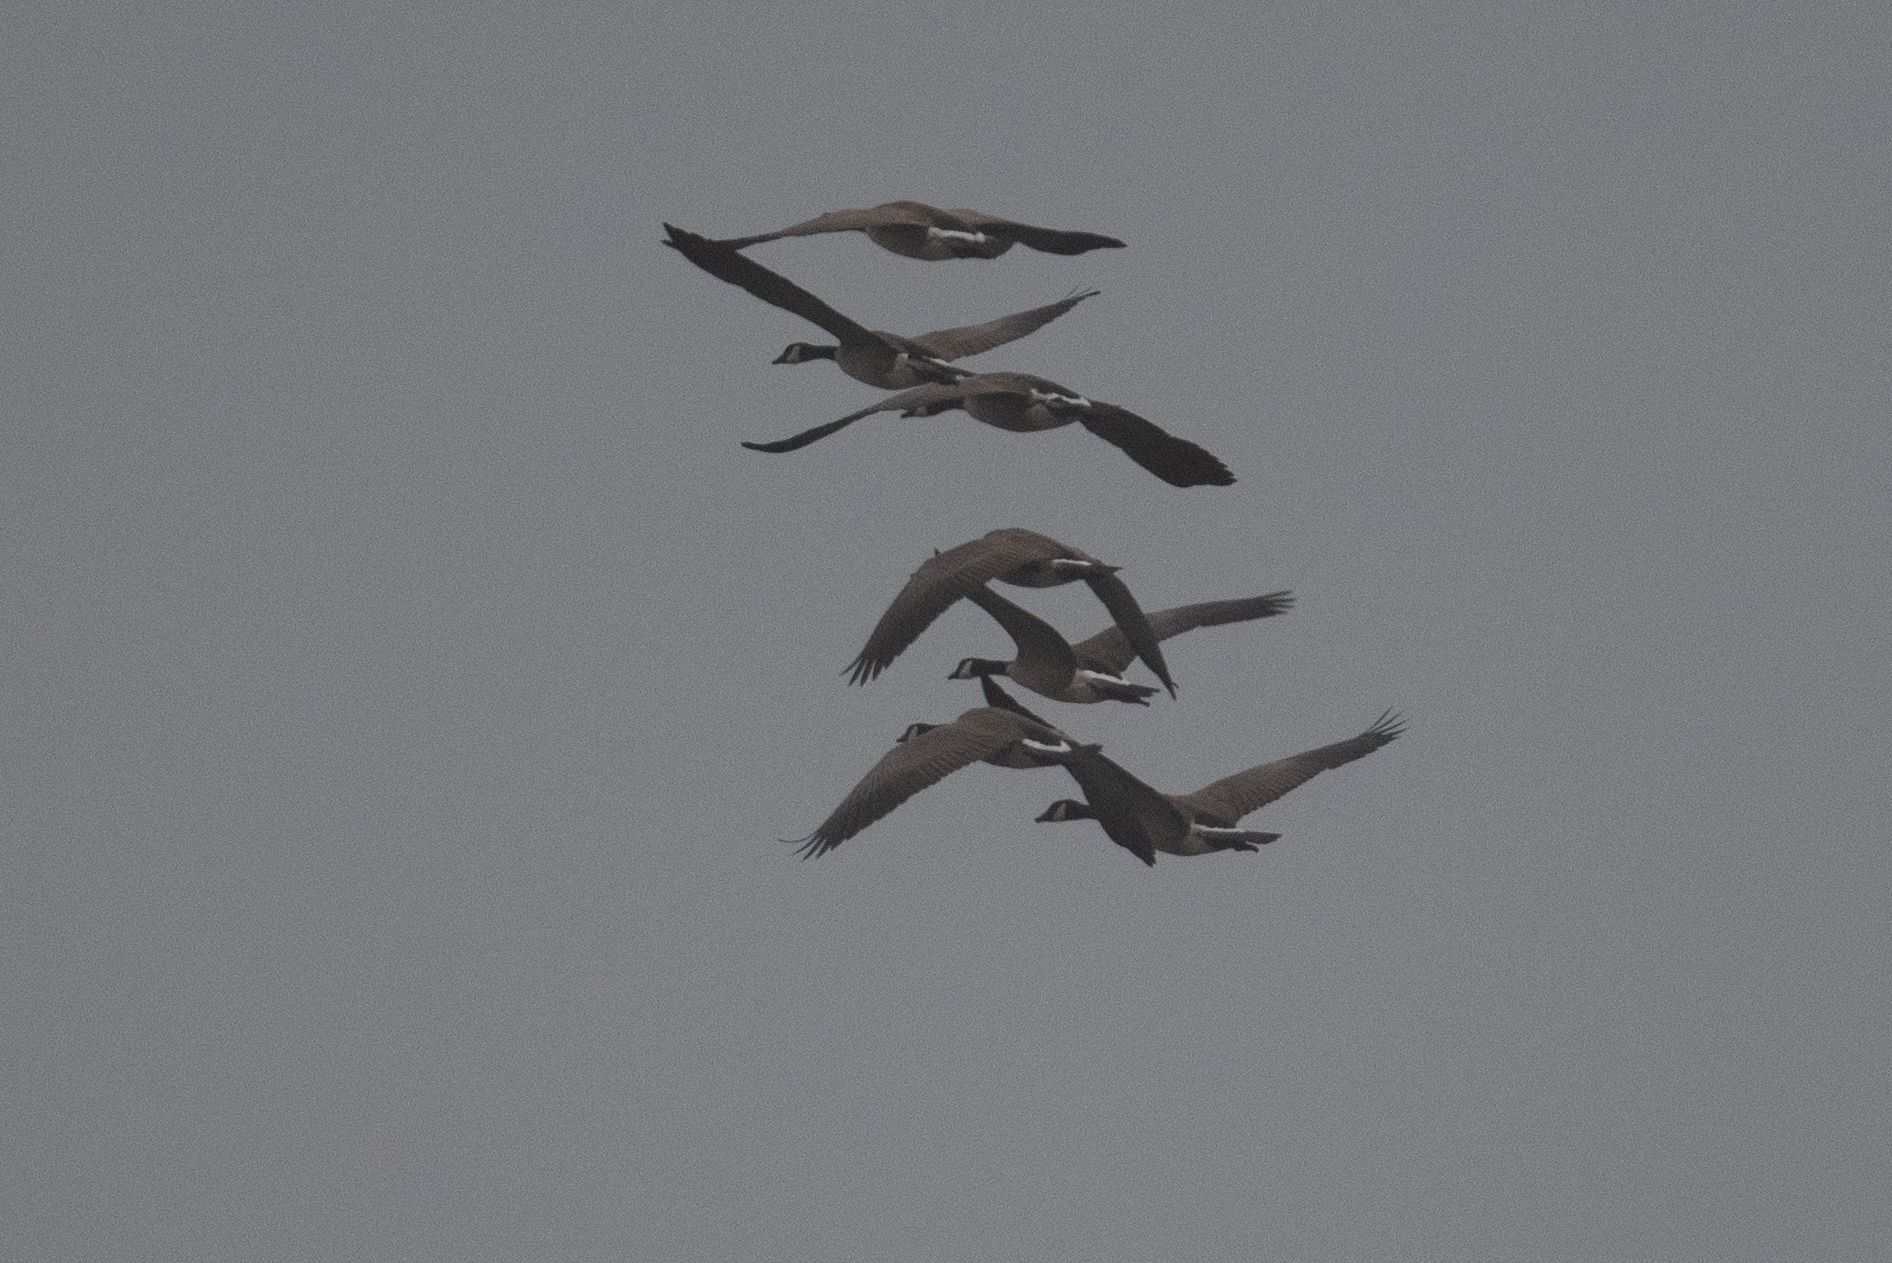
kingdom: Animalia
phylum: Chordata
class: Aves
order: Anseriformes
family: Anatidae
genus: Branta
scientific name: Branta canadensis
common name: Canada goose
